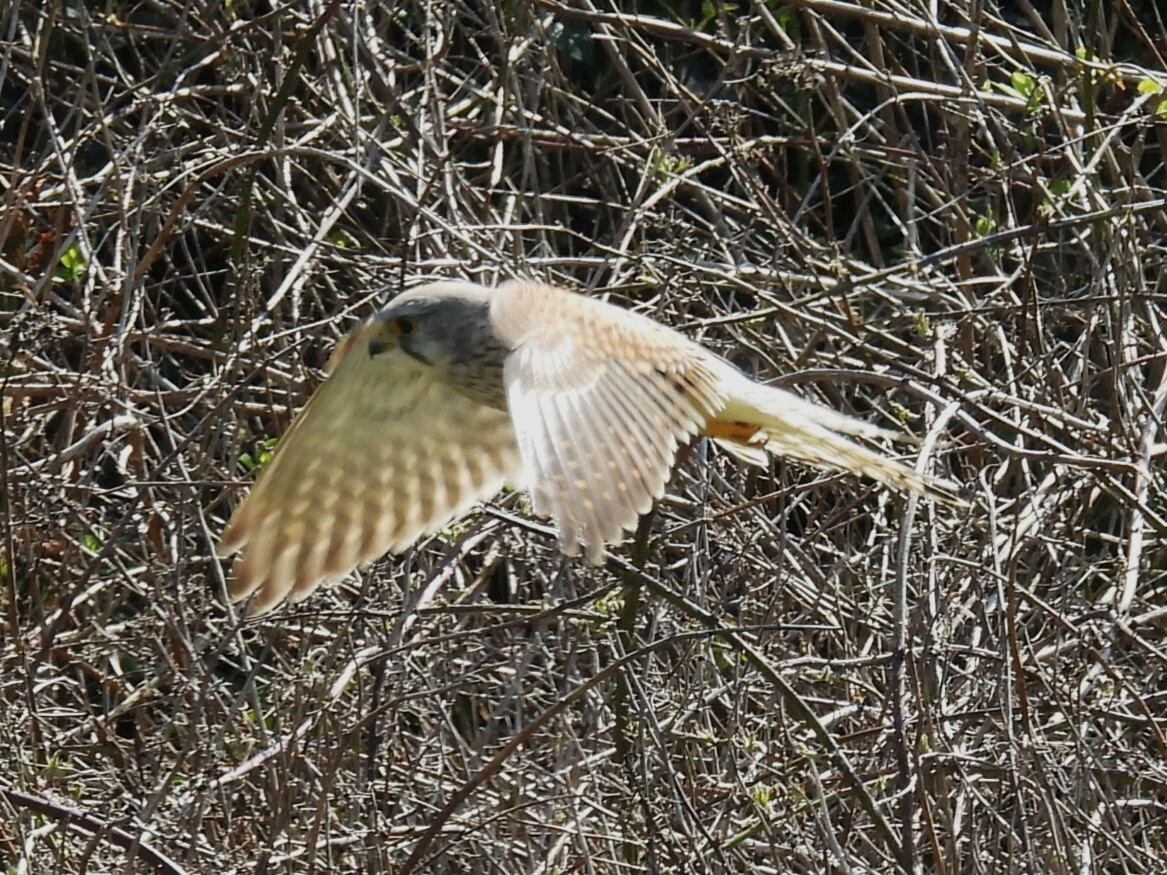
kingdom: Animalia
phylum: Chordata
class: Aves
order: Falconiformes
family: Falconidae
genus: Falco
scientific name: Falco tinnunculus
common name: Common kestrel
